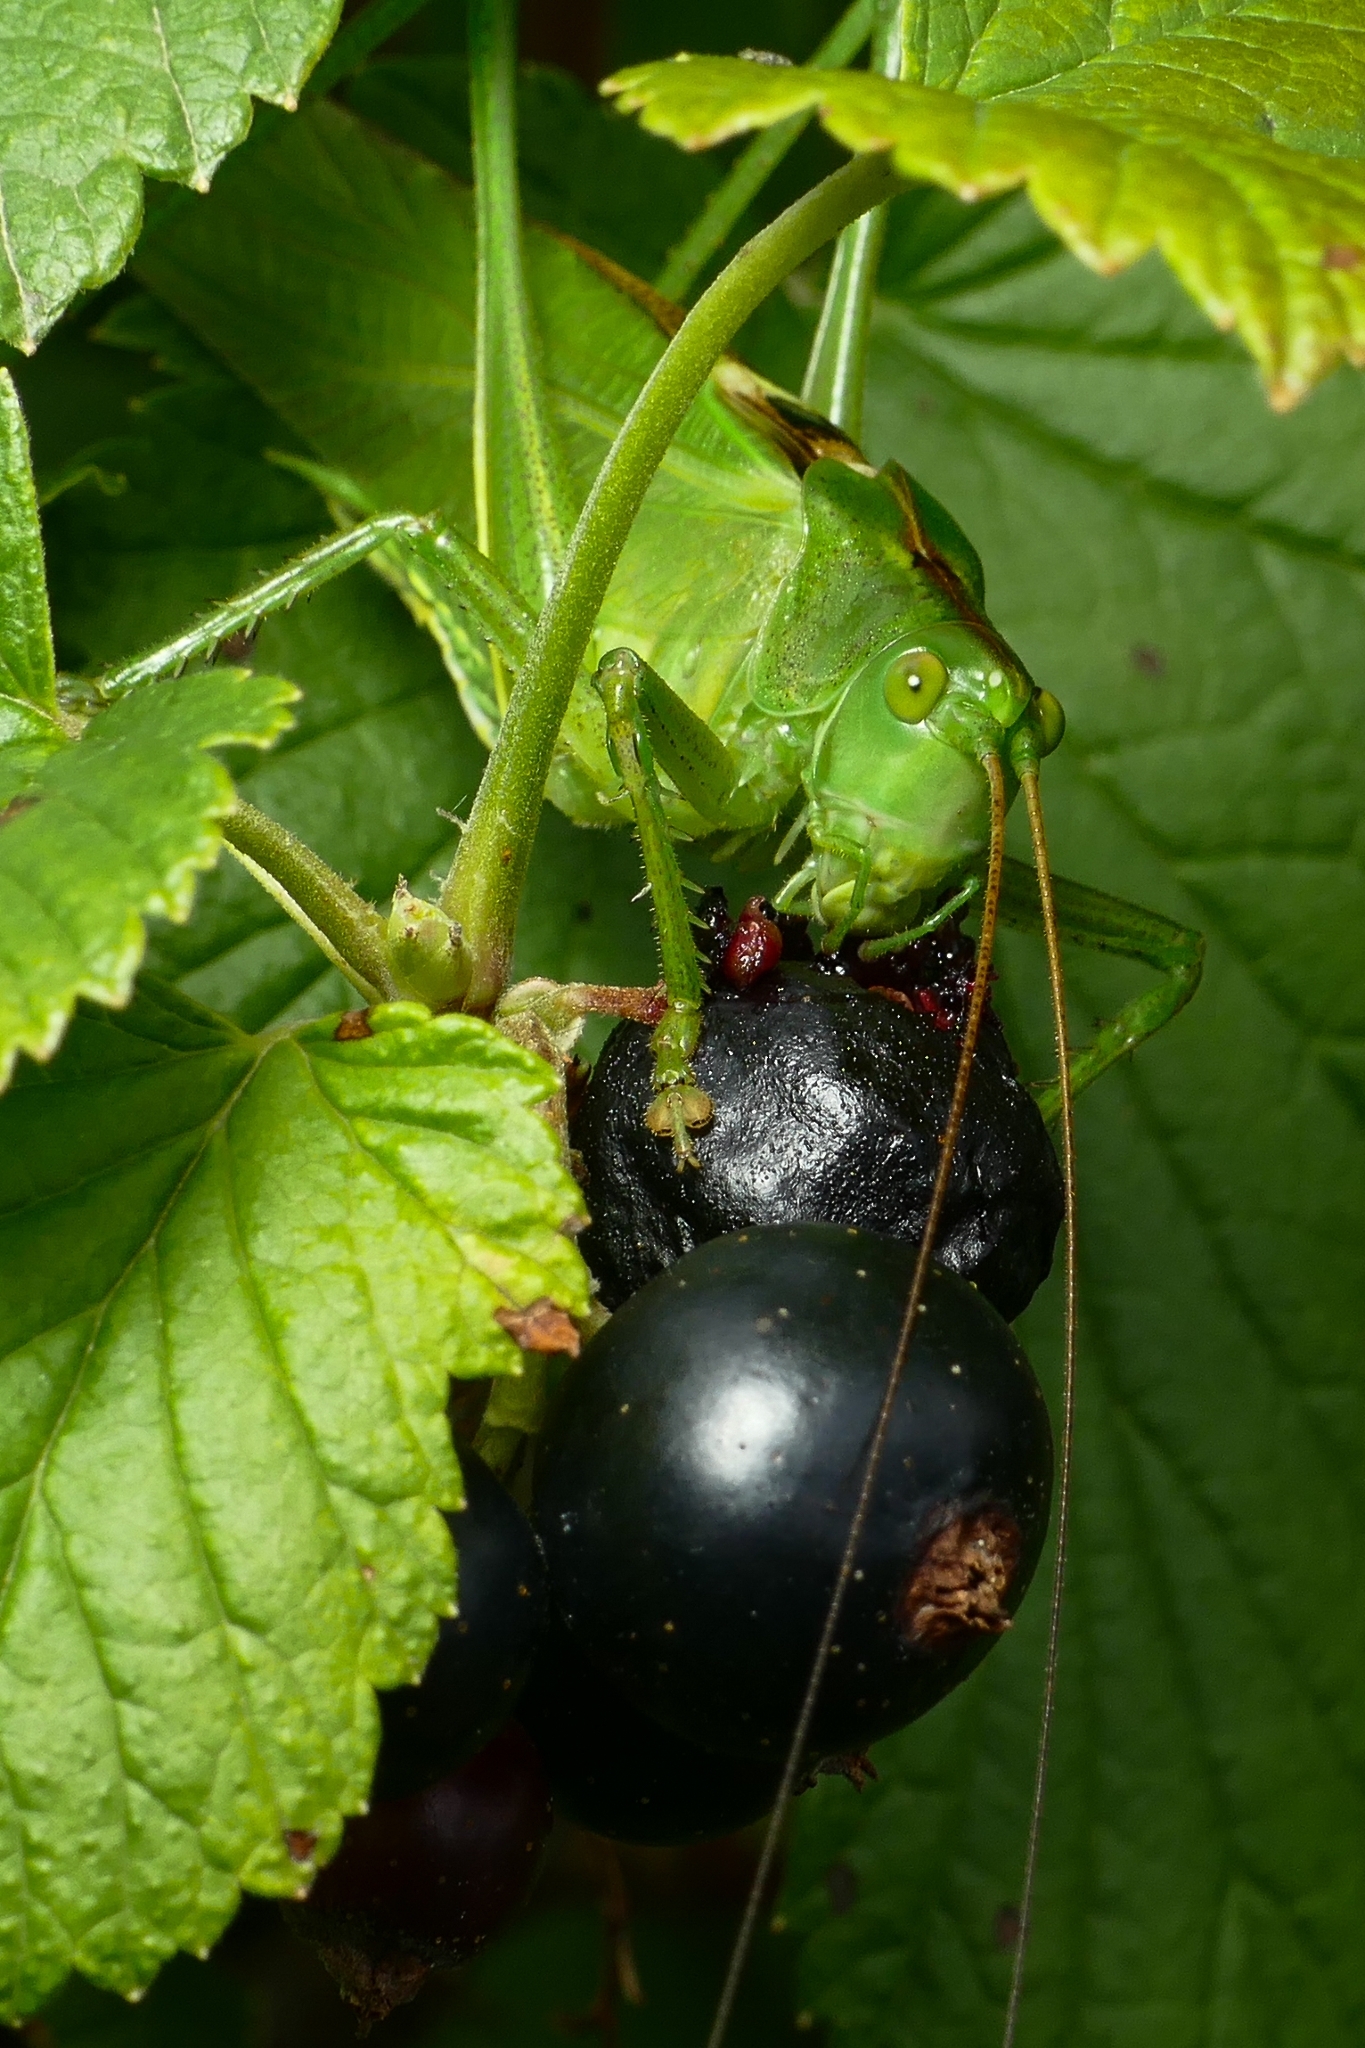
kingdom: Animalia
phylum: Arthropoda
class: Insecta
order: Orthoptera
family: Tettigoniidae
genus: Tettigonia
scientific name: Tettigonia viridissima
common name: Great green bush-cricket
